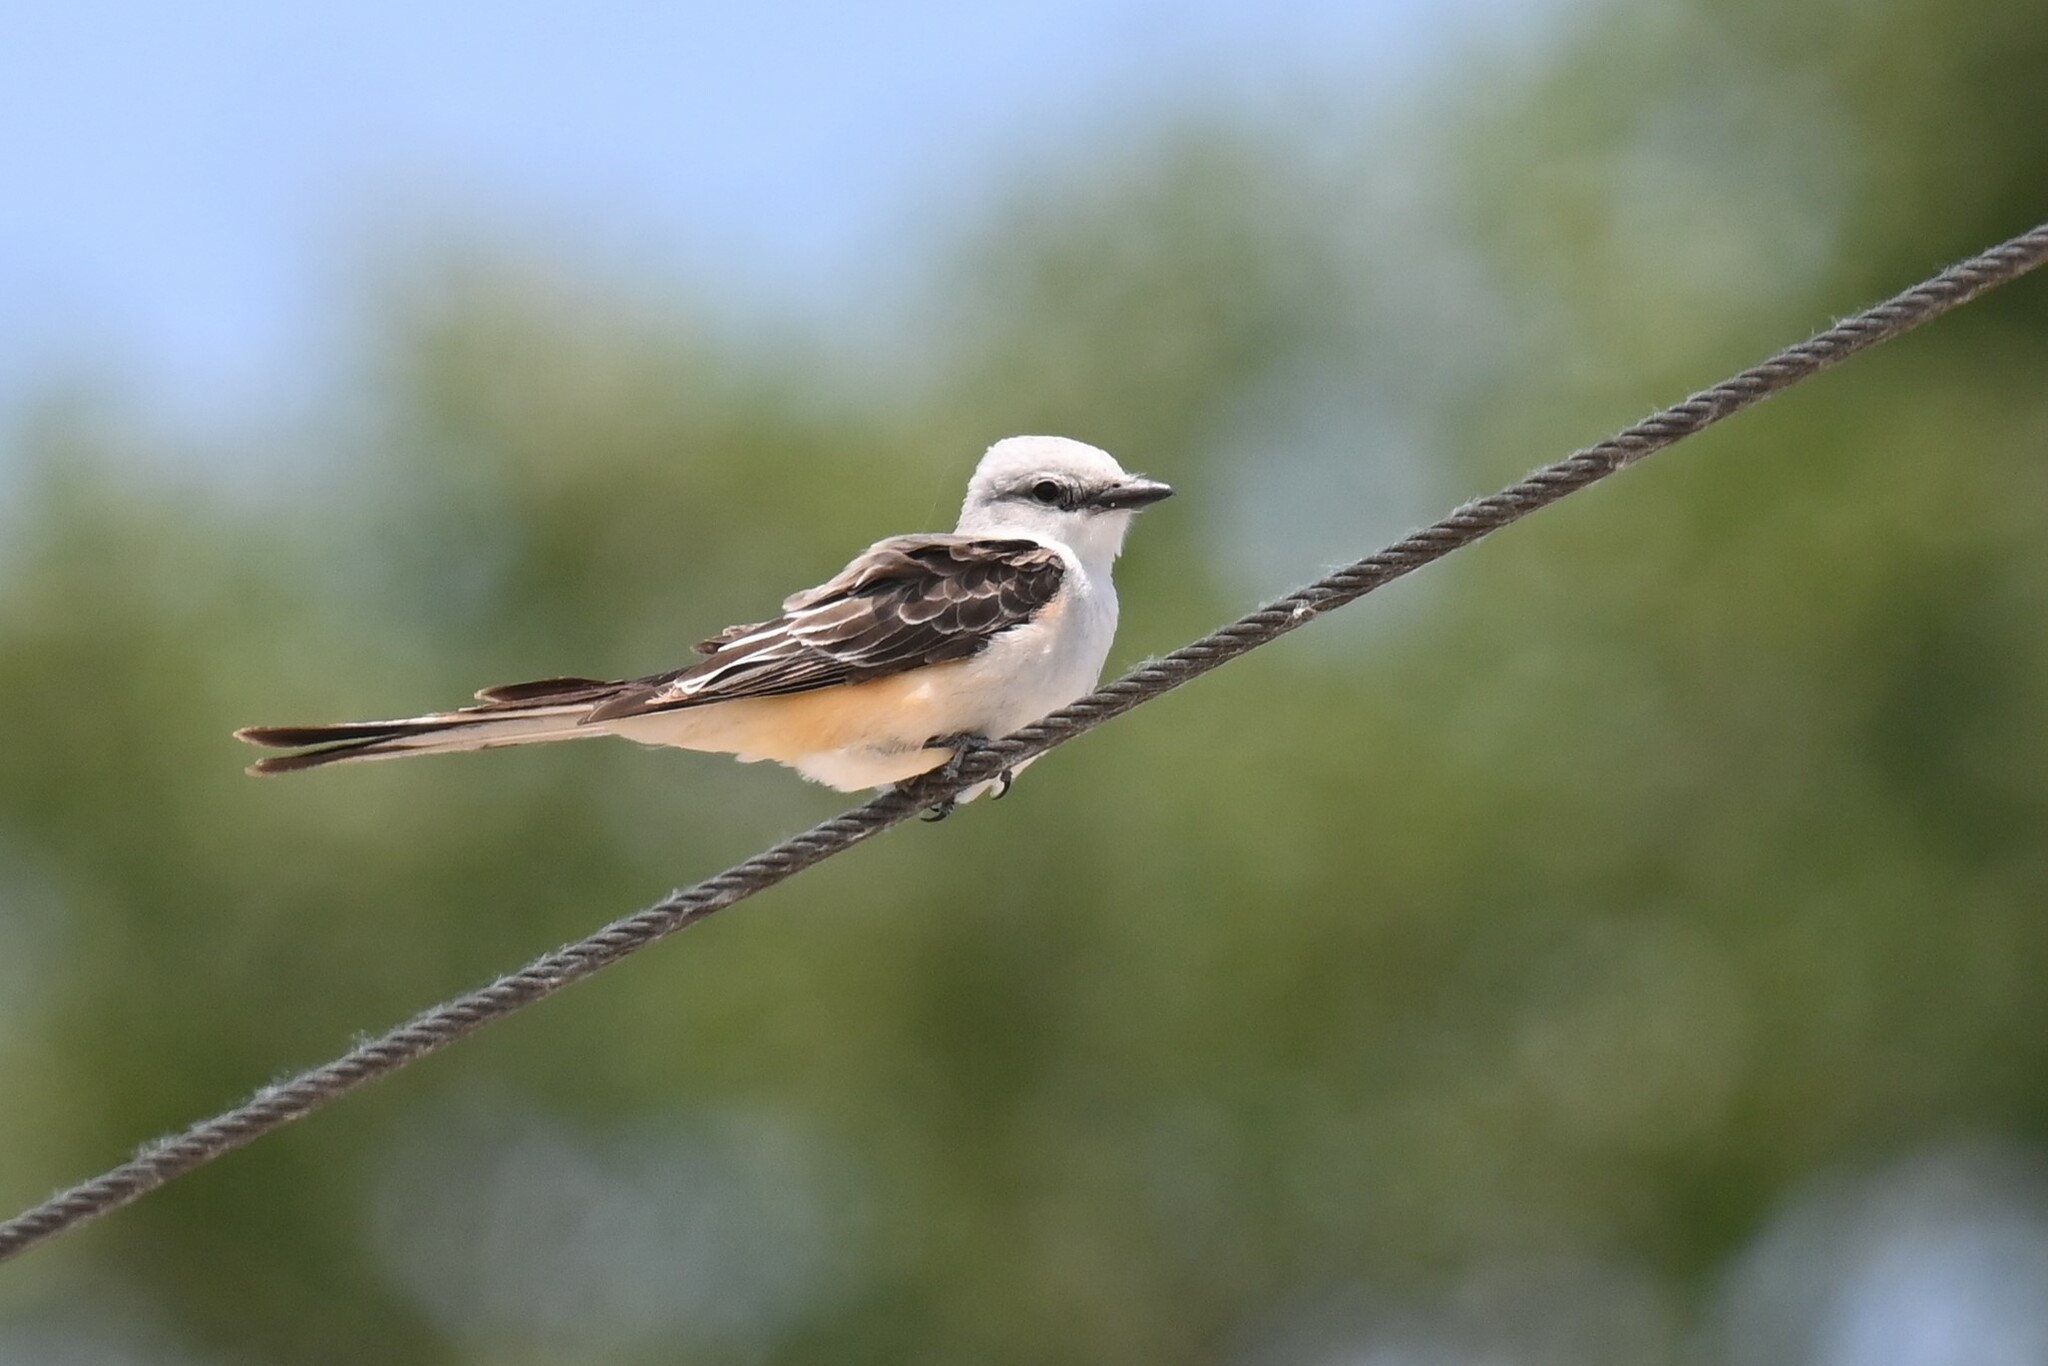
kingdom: Animalia
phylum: Chordata
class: Aves
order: Passeriformes
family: Tyrannidae
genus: Tyrannus
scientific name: Tyrannus forficatus
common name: Scissor-tailed flycatcher
